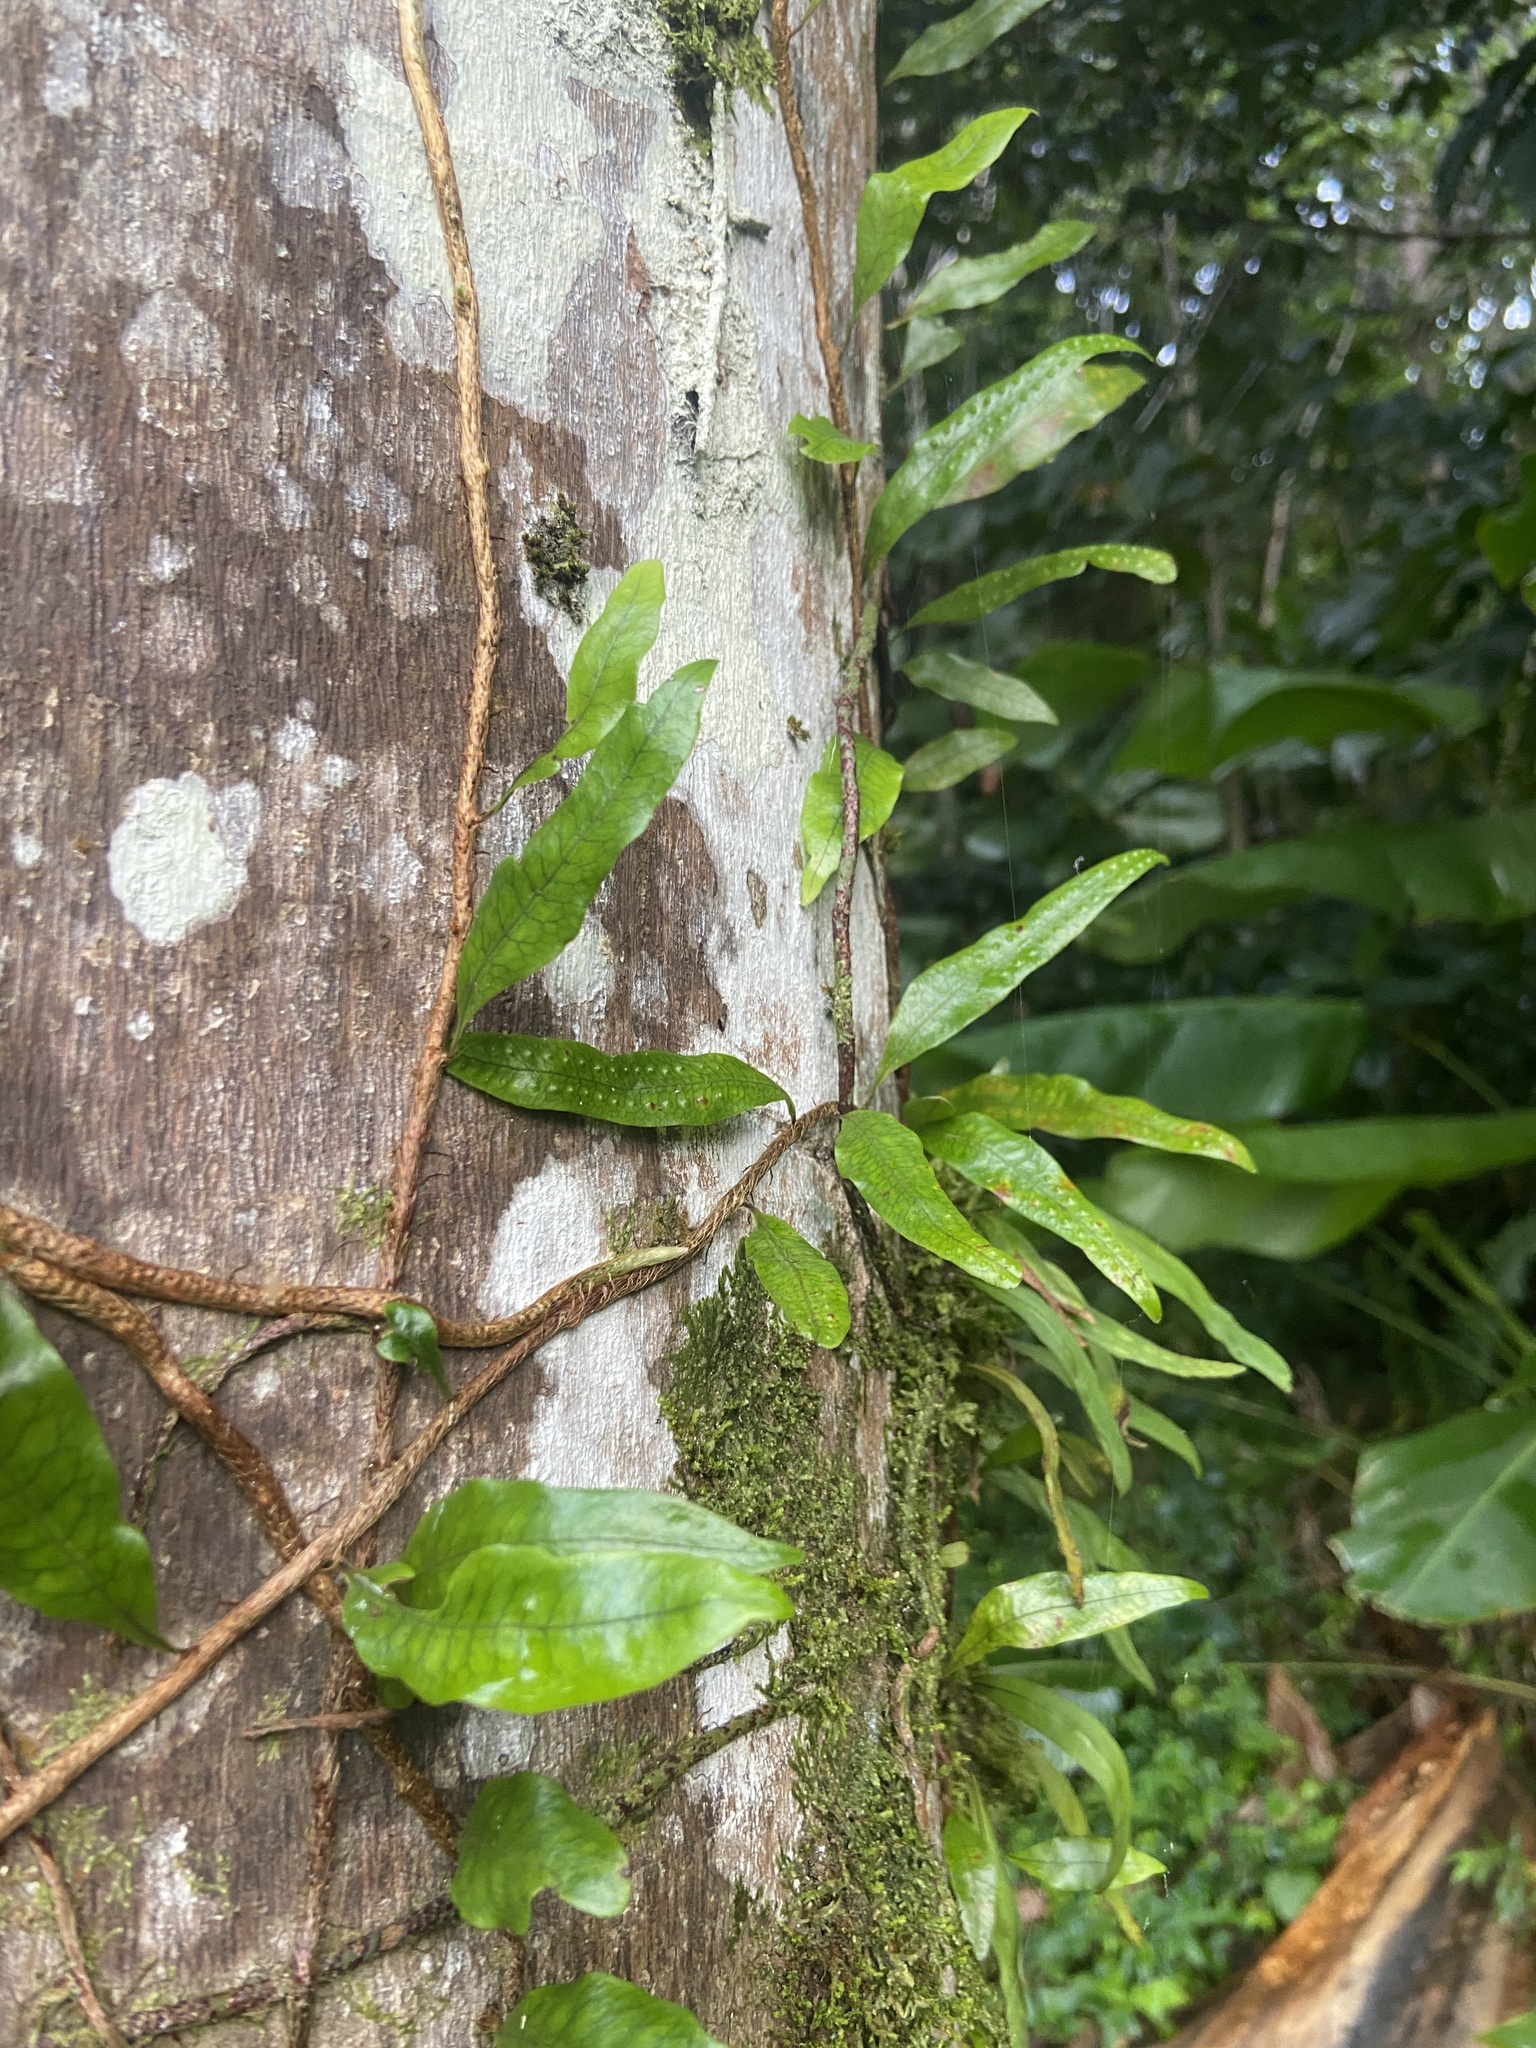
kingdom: Plantae
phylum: Tracheophyta
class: Polypodiopsida
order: Polypodiales
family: Polypodiaceae
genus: Microgramma
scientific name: Microgramma lycopodioides
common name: Bastard catclaw
